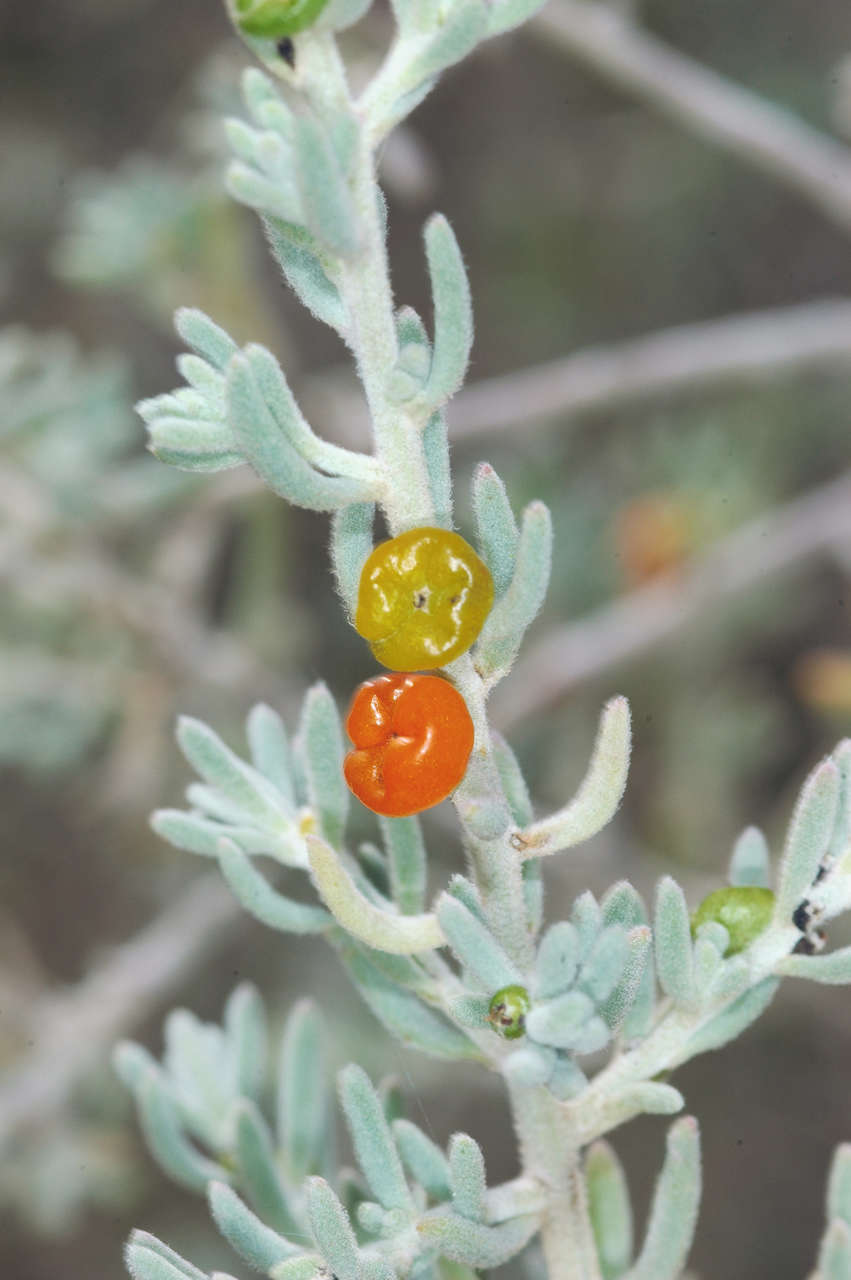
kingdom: Plantae
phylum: Tracheophyta
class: Magnoliopsida
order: Caryophyllales
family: Amaranthaceae
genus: Enchylaena
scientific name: Enchylaena tomentosa
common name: Ruby saltbush
